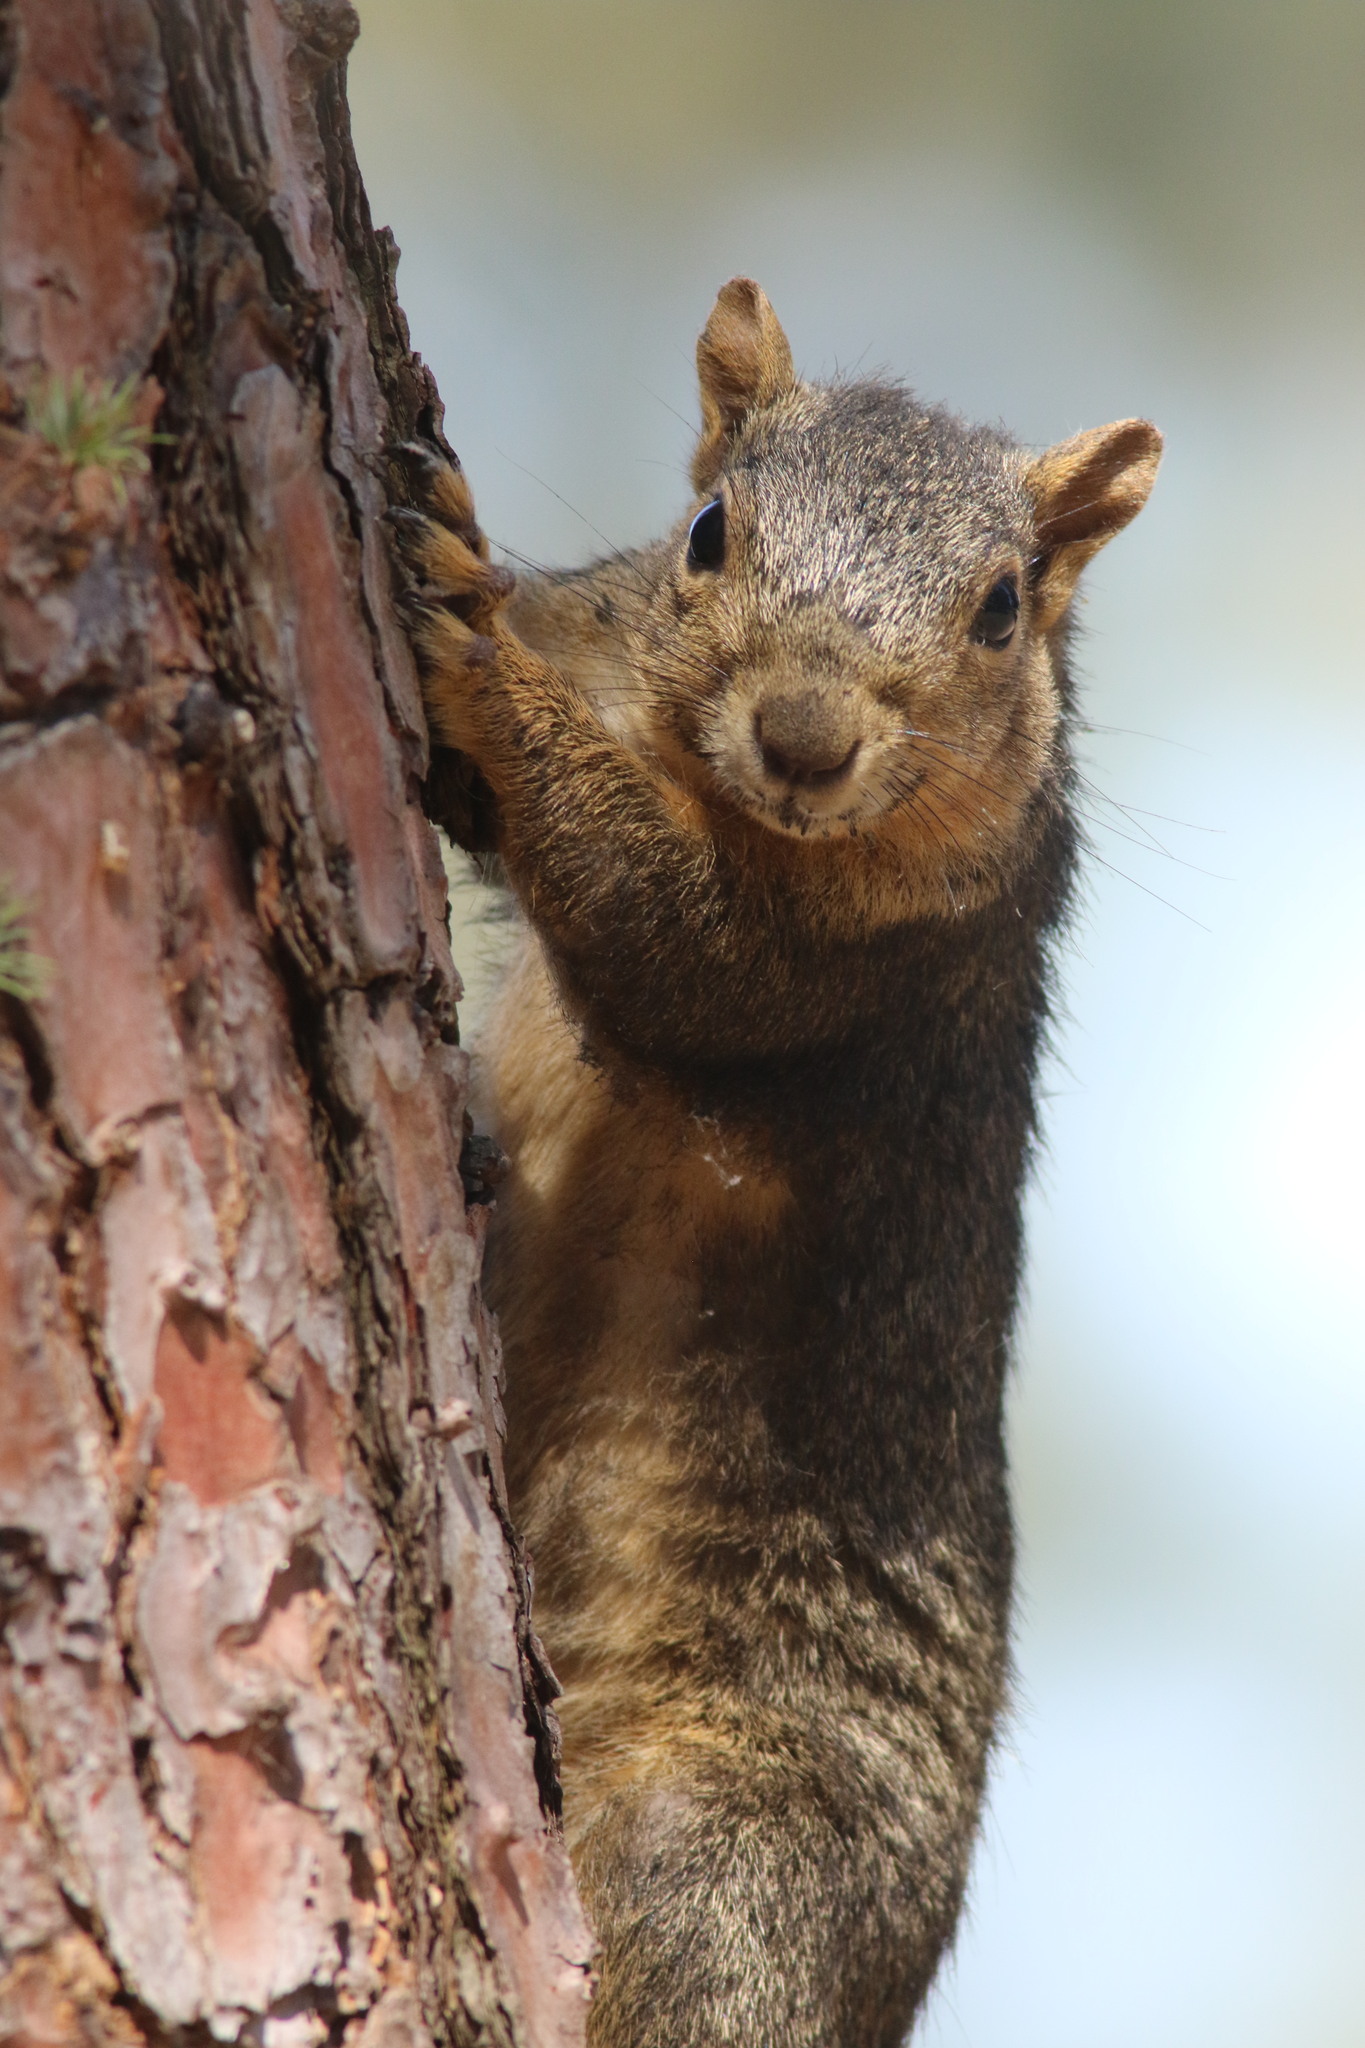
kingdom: Animalia
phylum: Chordata
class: Mammalia
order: Rodentia
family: Sciuridae
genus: Sciurus
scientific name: Sciurus niger
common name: Fox squirrel
